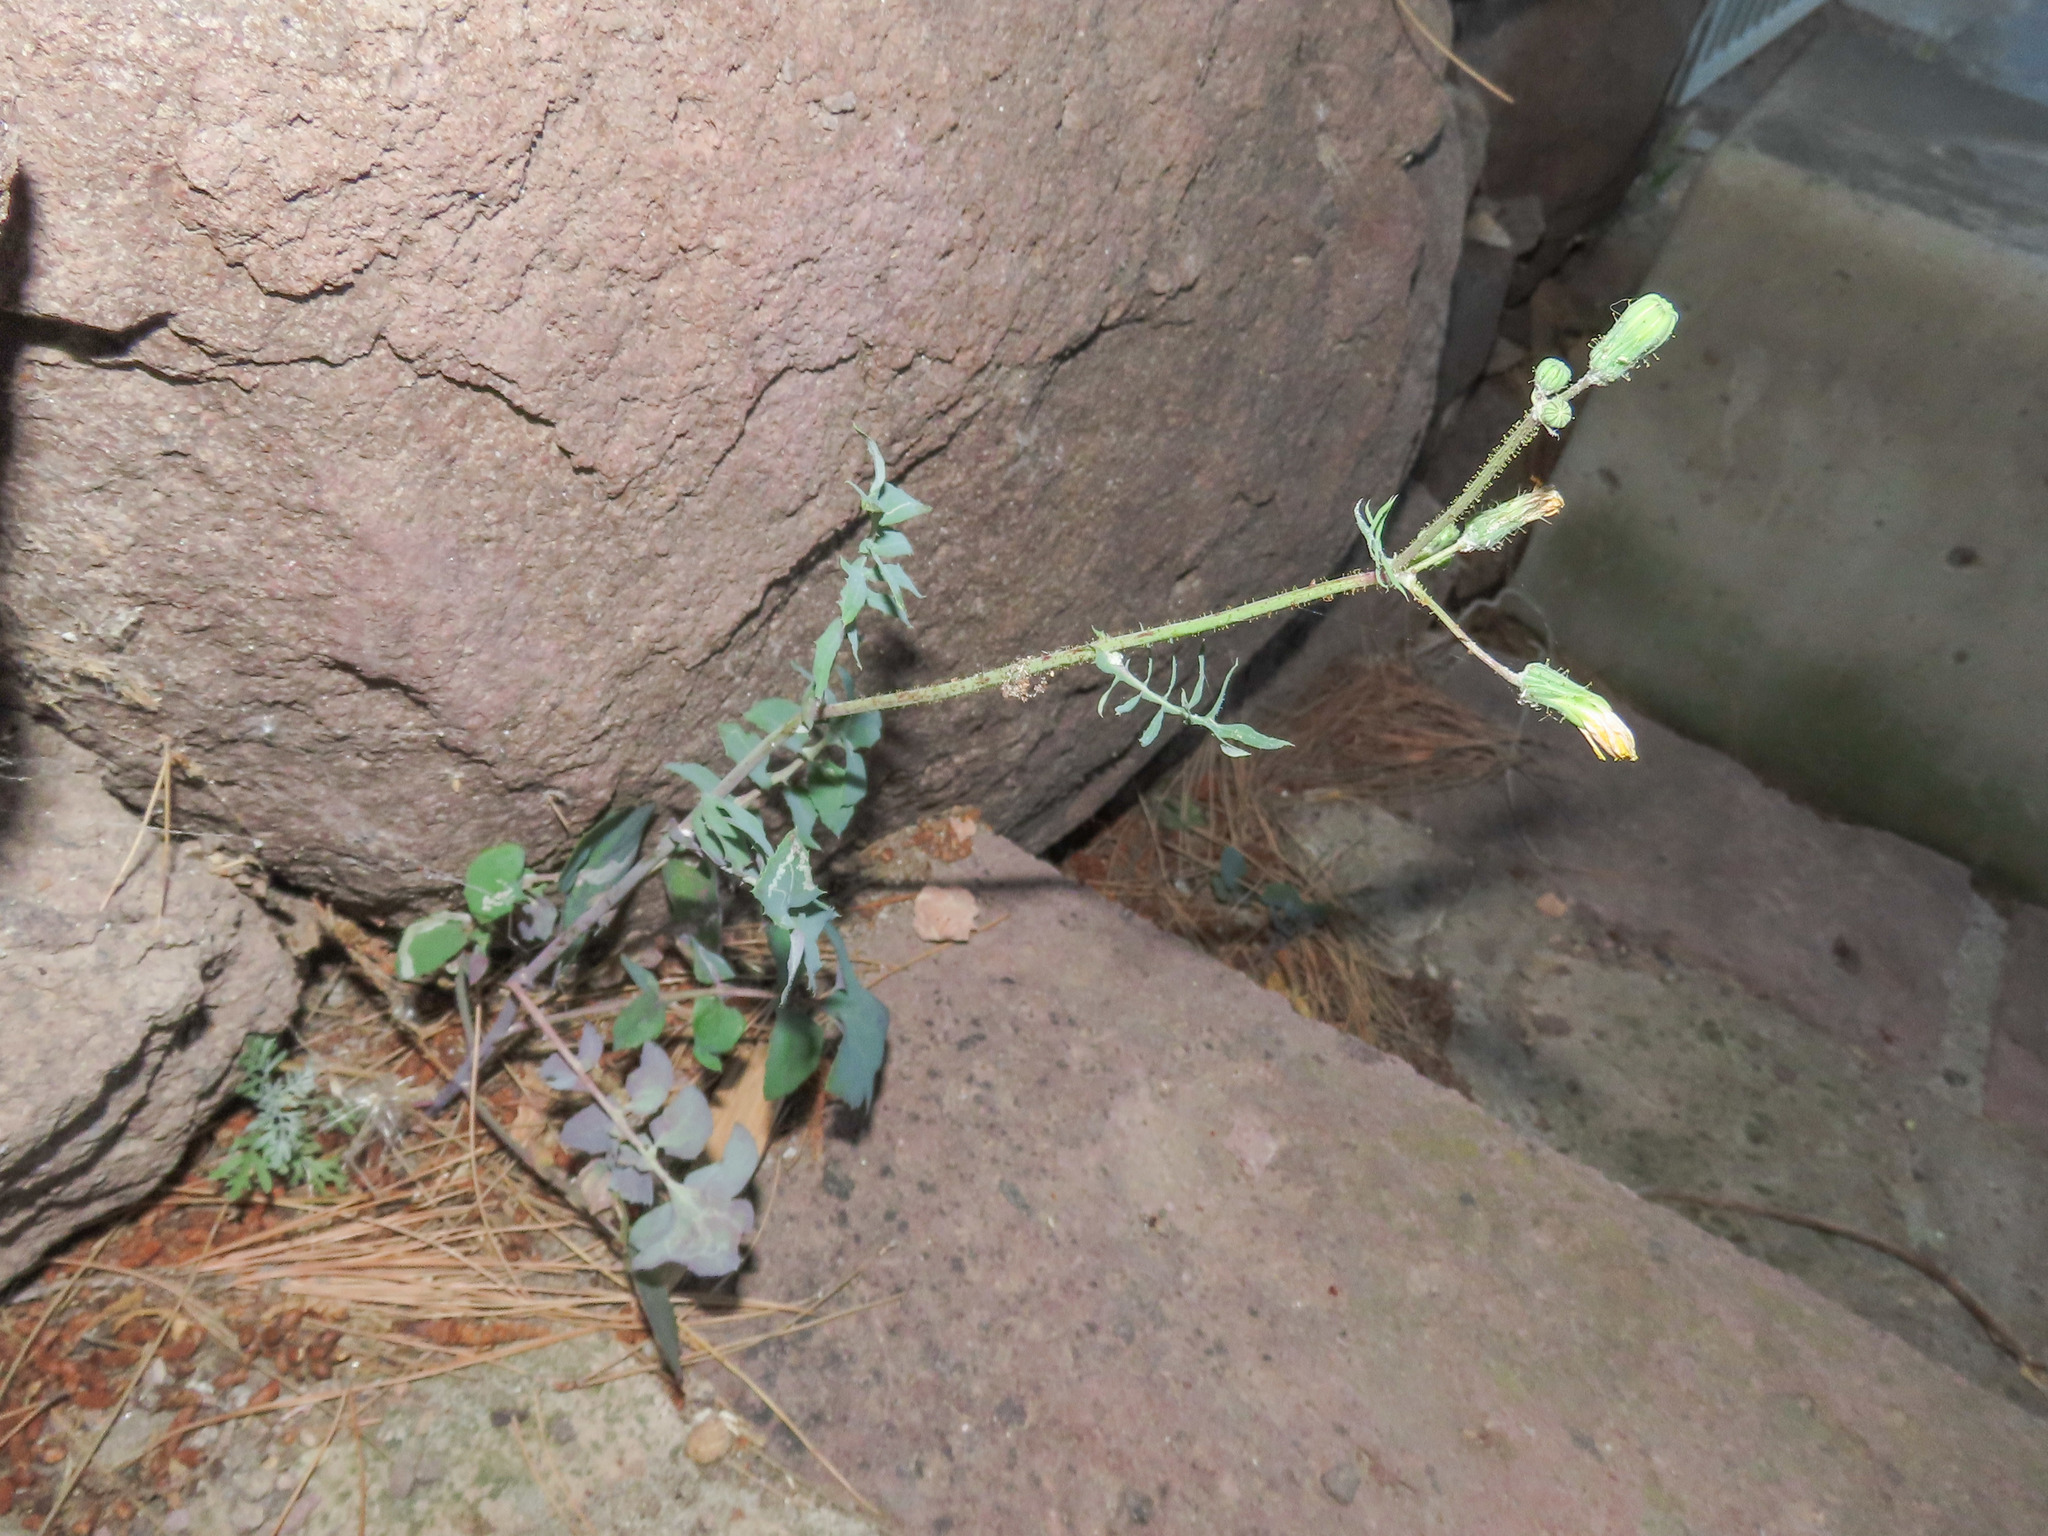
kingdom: Plantae
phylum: Tracheophyta
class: Magnoliopsida
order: Asterales
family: Asteraceae
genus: Sonchus
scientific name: Sonchus tenerrimus
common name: Clammy sowthistle
